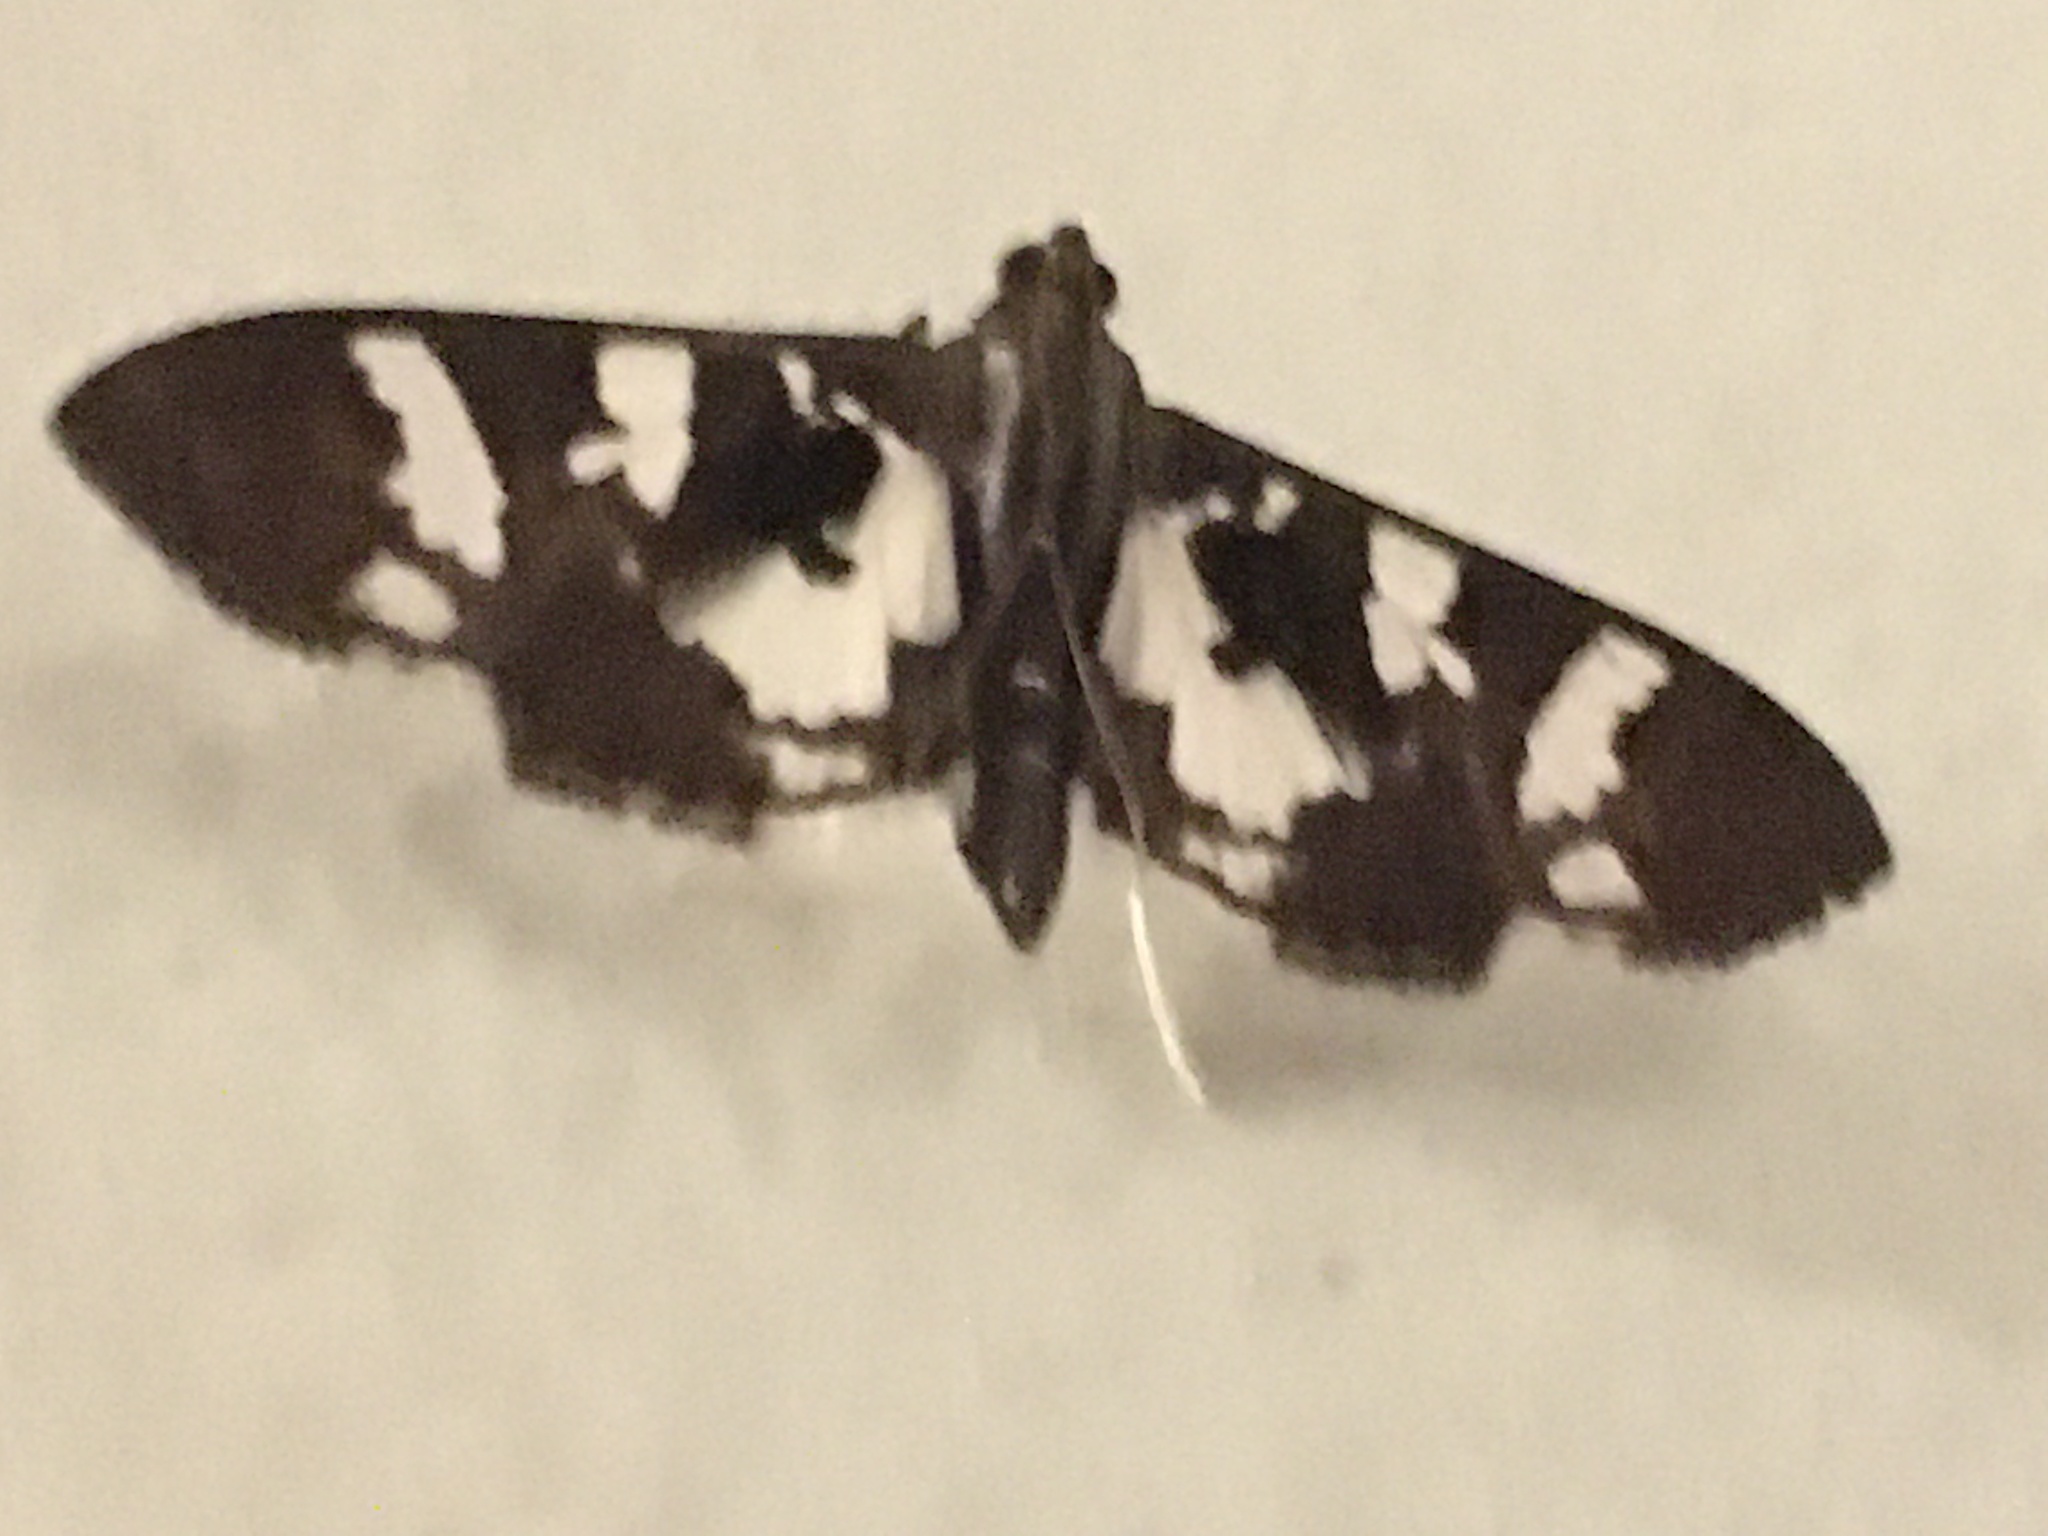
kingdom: Animalia
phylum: Arthropoda
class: Insecta
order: Lepidoptera
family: Crambidae
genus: Desmia
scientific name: Desmia bajulalis
